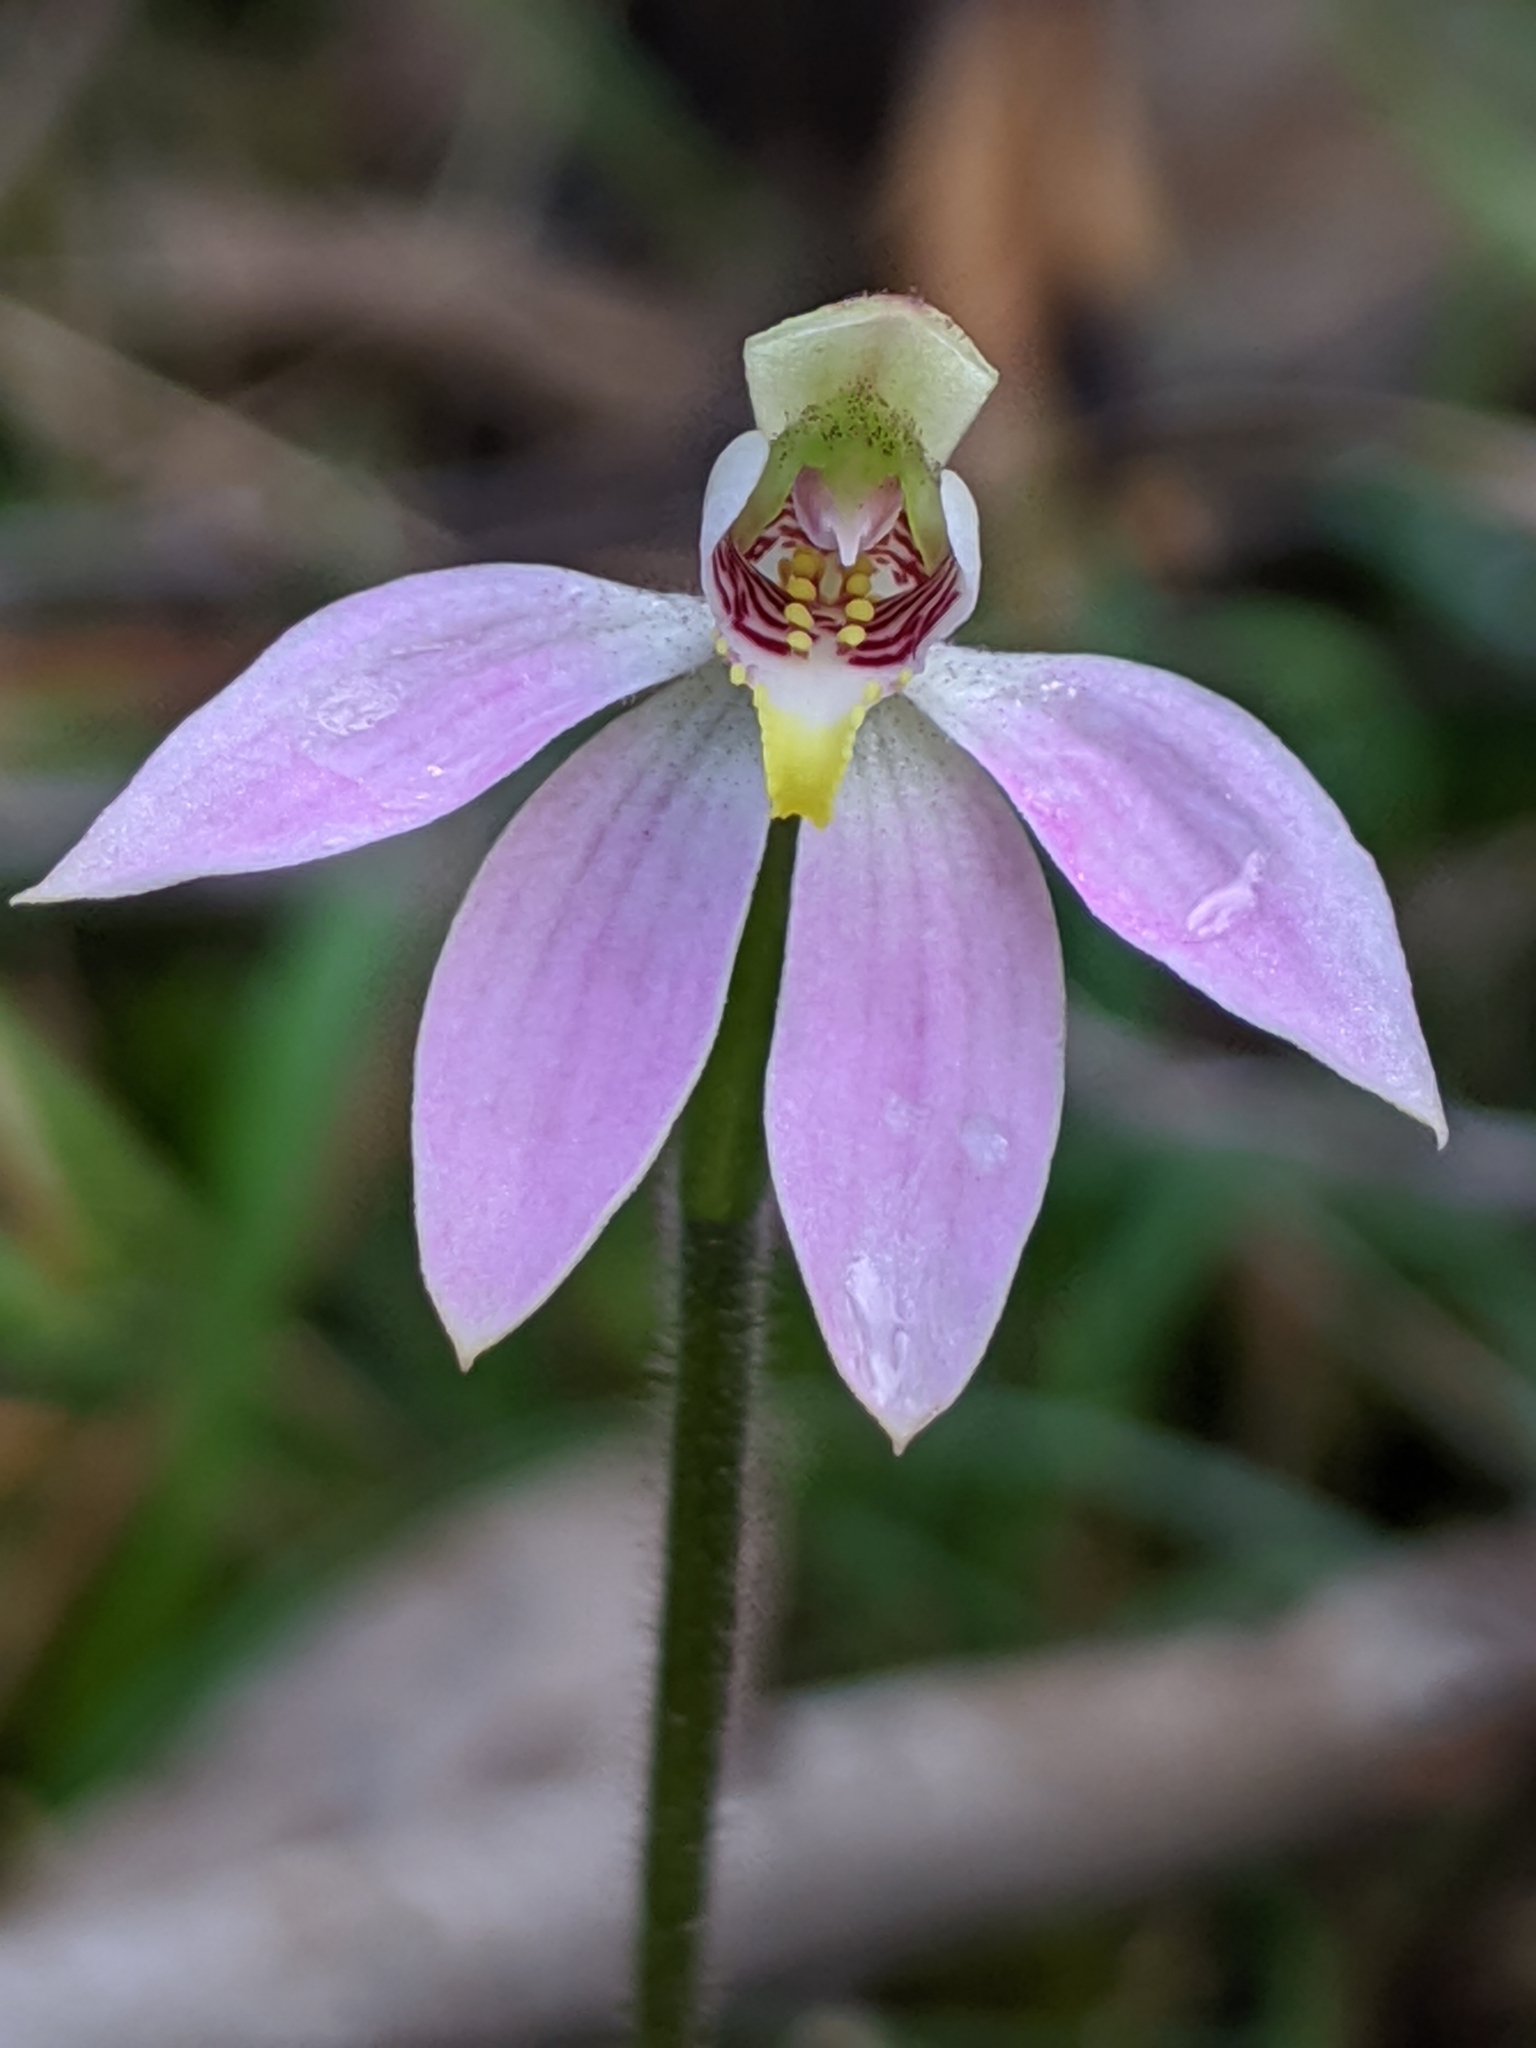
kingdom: Plantae
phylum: Tracheophyta
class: Liliopsida
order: Asparagales
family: Orchidaceae
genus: Caladenia
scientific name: Caladenia carnea
